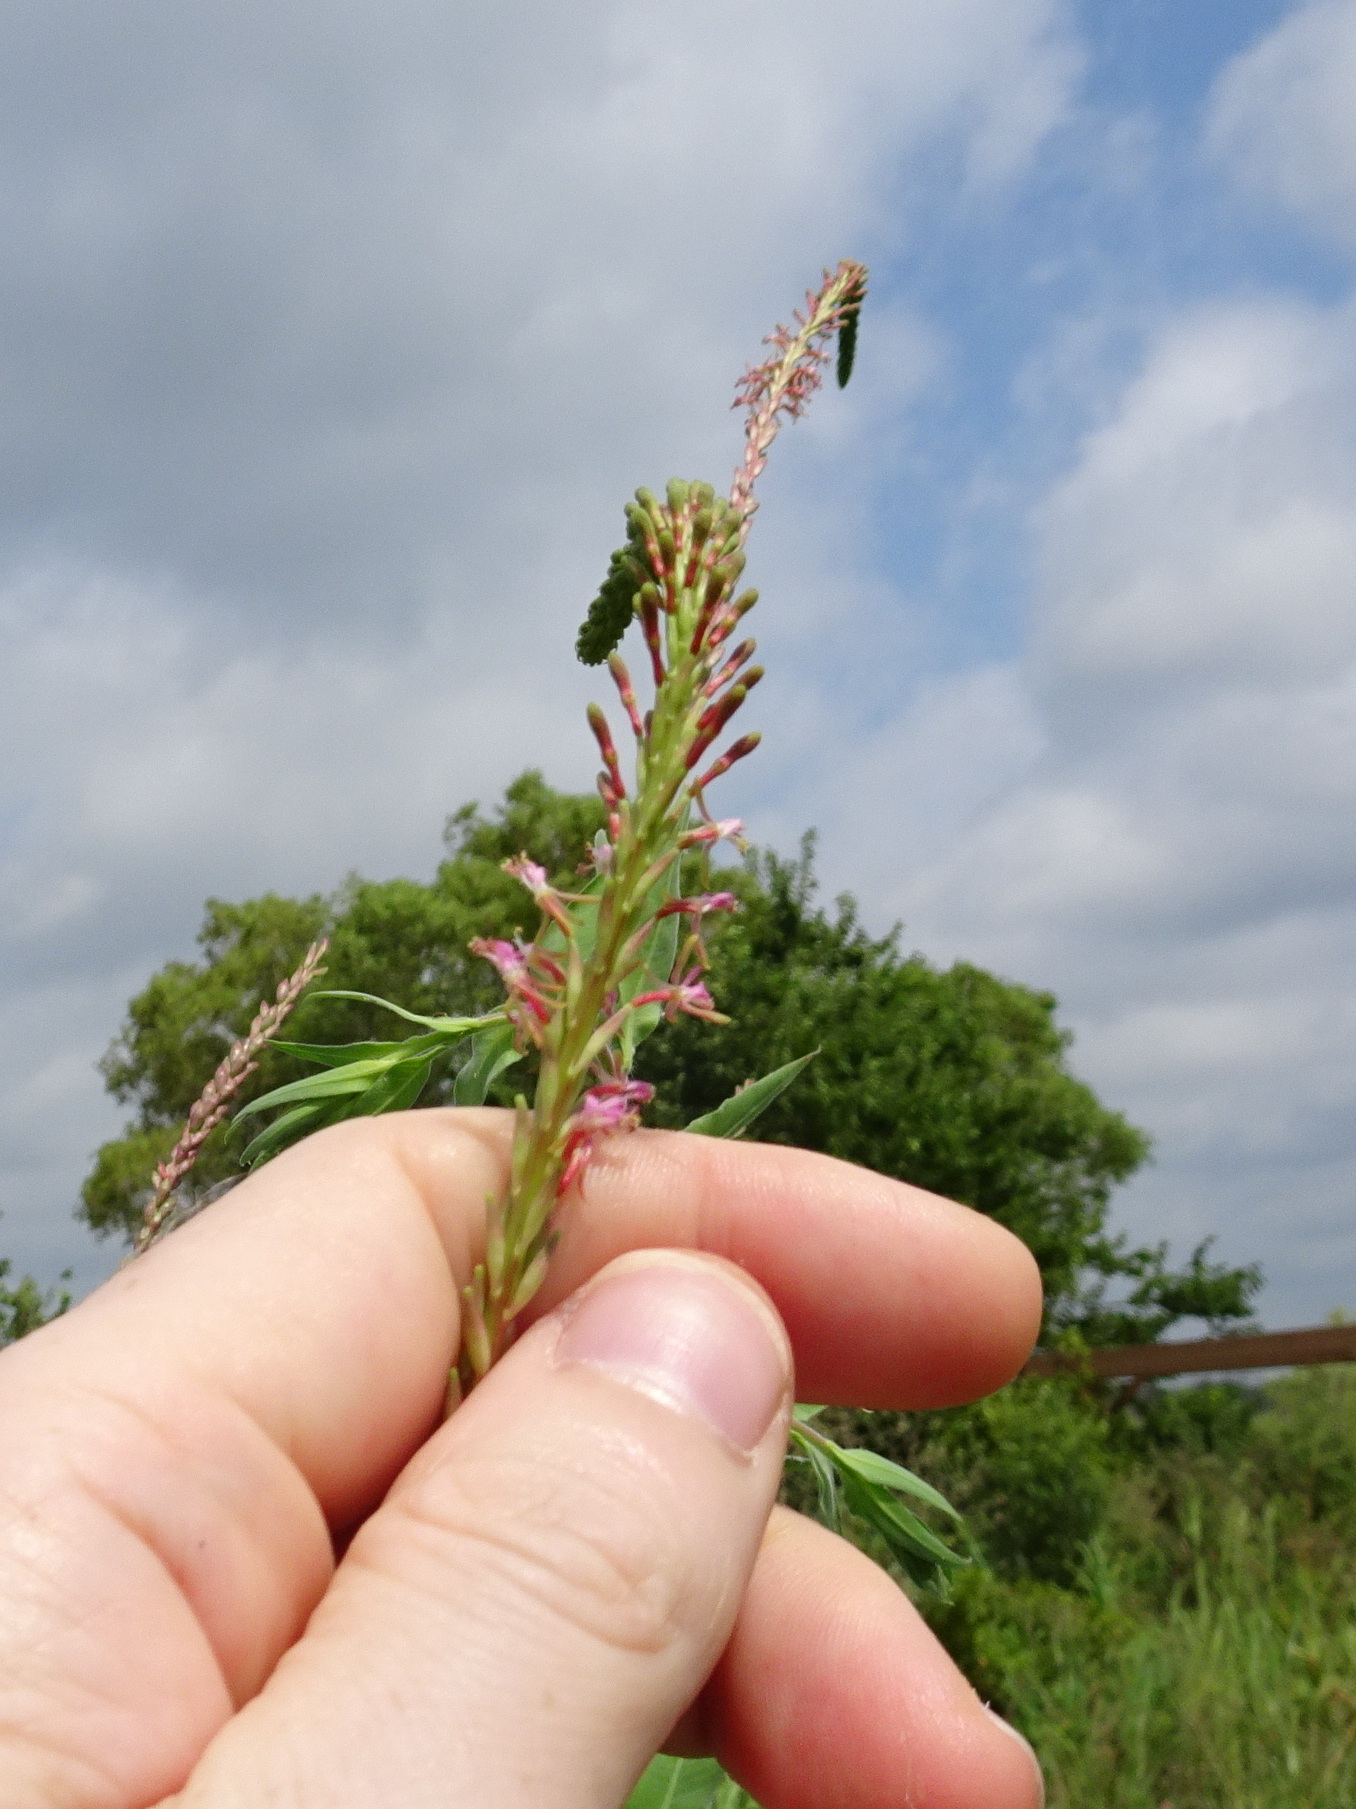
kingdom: Plantae
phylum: Tracheophyta
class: Magnoliopsida
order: Myrtales
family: Onagraceae
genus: Oenothera
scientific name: Oenothera curtiflora
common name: Velvetweed
